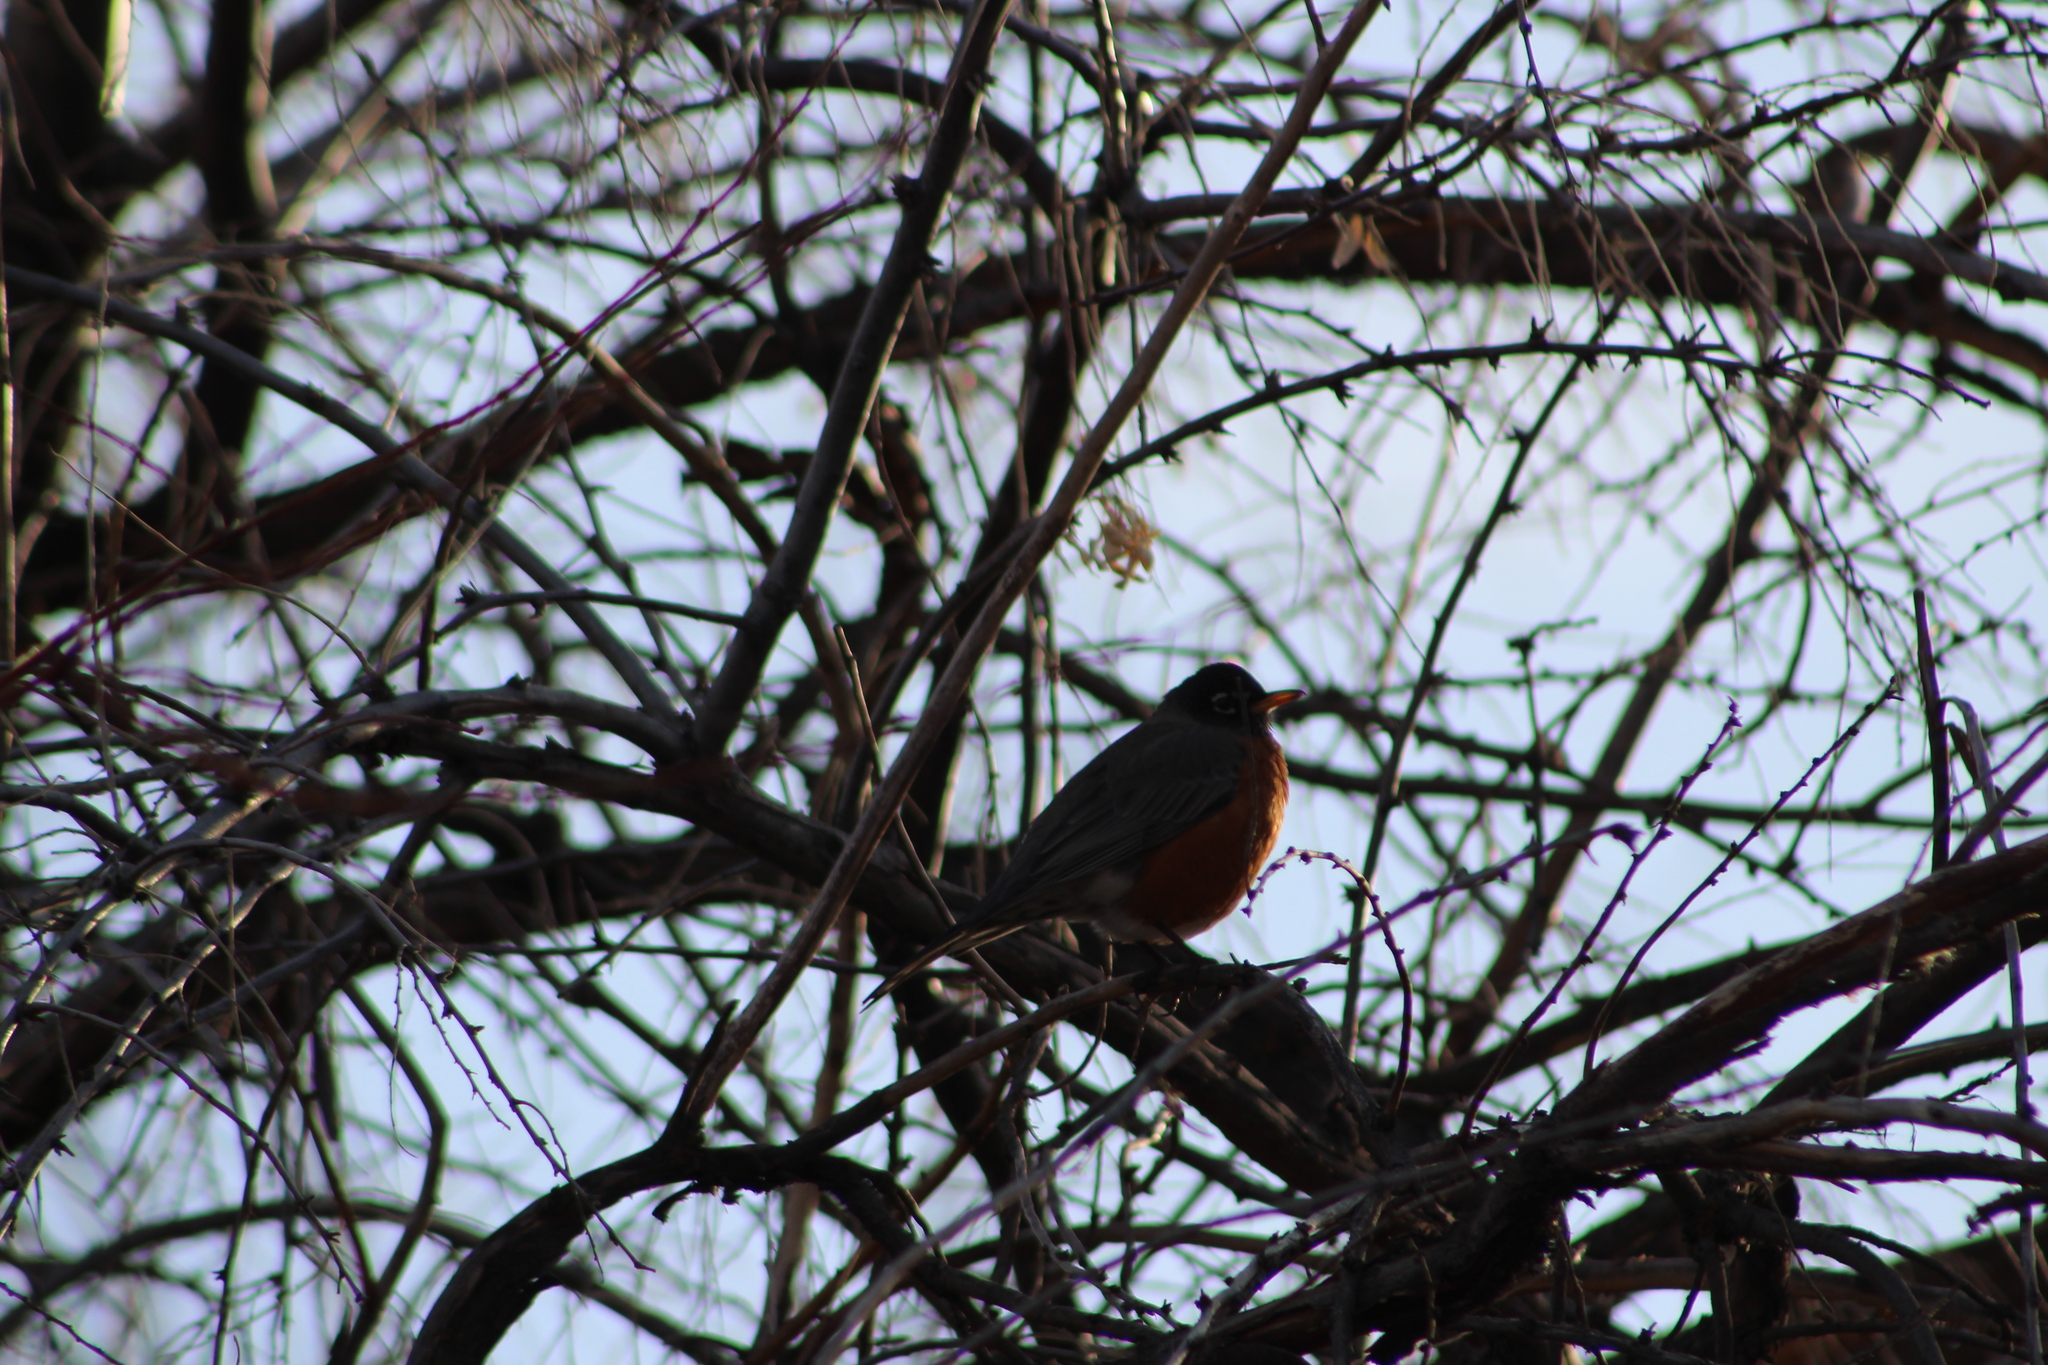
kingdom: Animalia
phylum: Chordata
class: Aves
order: Passeriformes
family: Turdidae
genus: Turdus
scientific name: Turdus migratorius
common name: American robin
